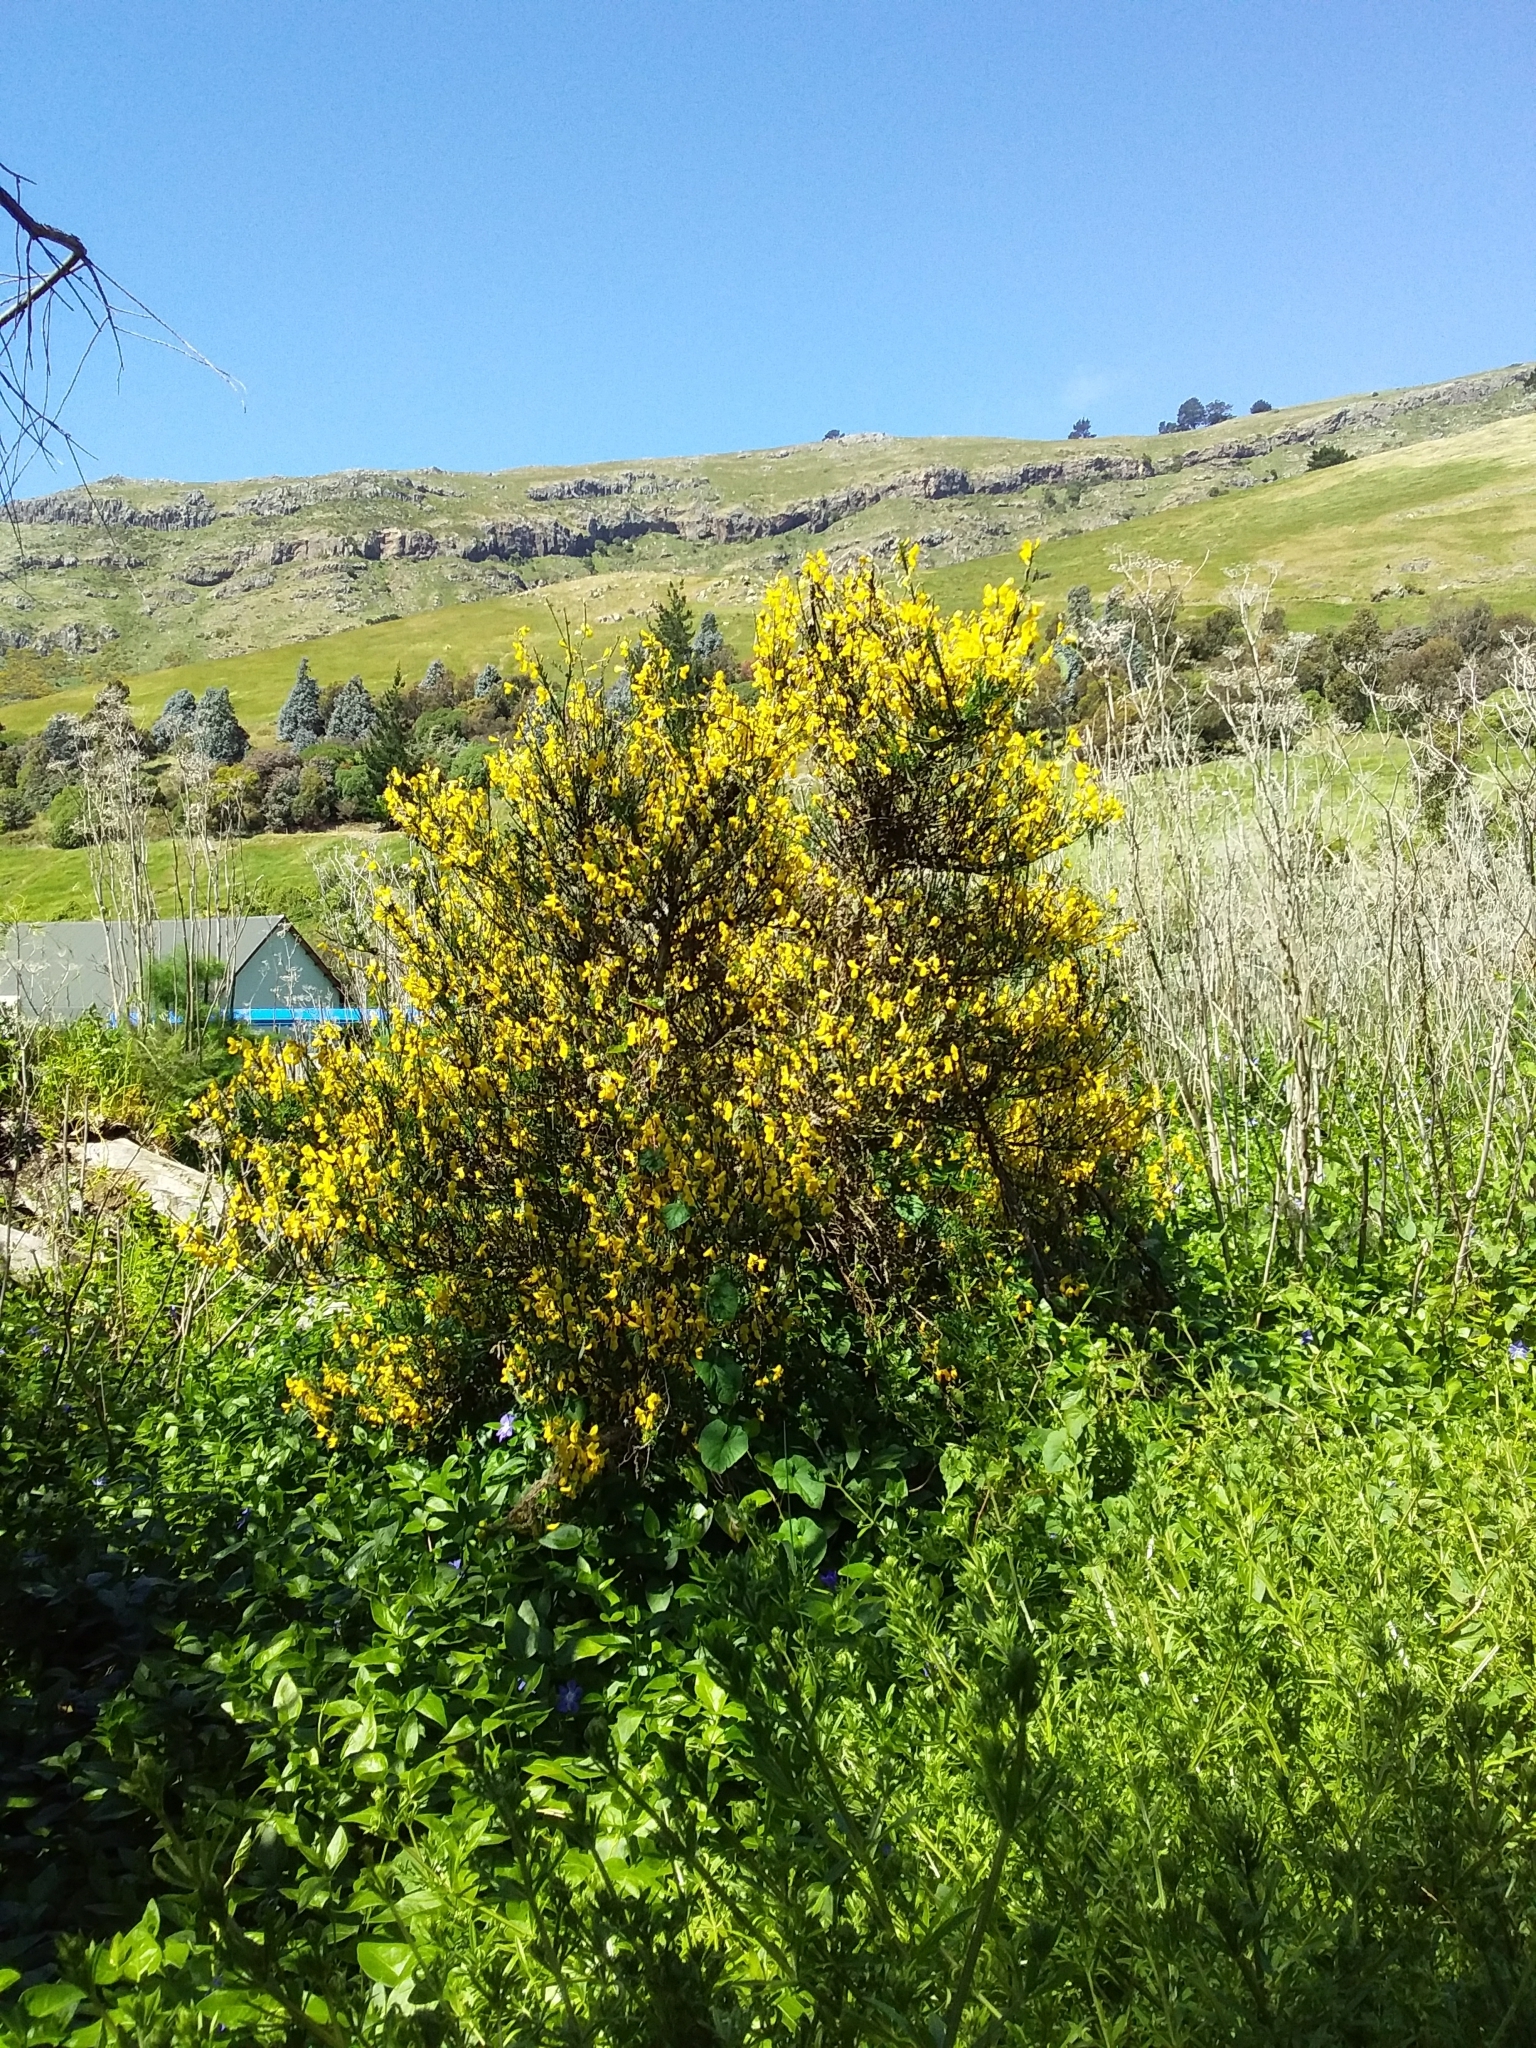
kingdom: Plantae
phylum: Tracheophyta
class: Magnoliopsida
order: Fabales
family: Fabaceae
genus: Cytisus
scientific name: Cytisus scoparius
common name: Scotch broom
